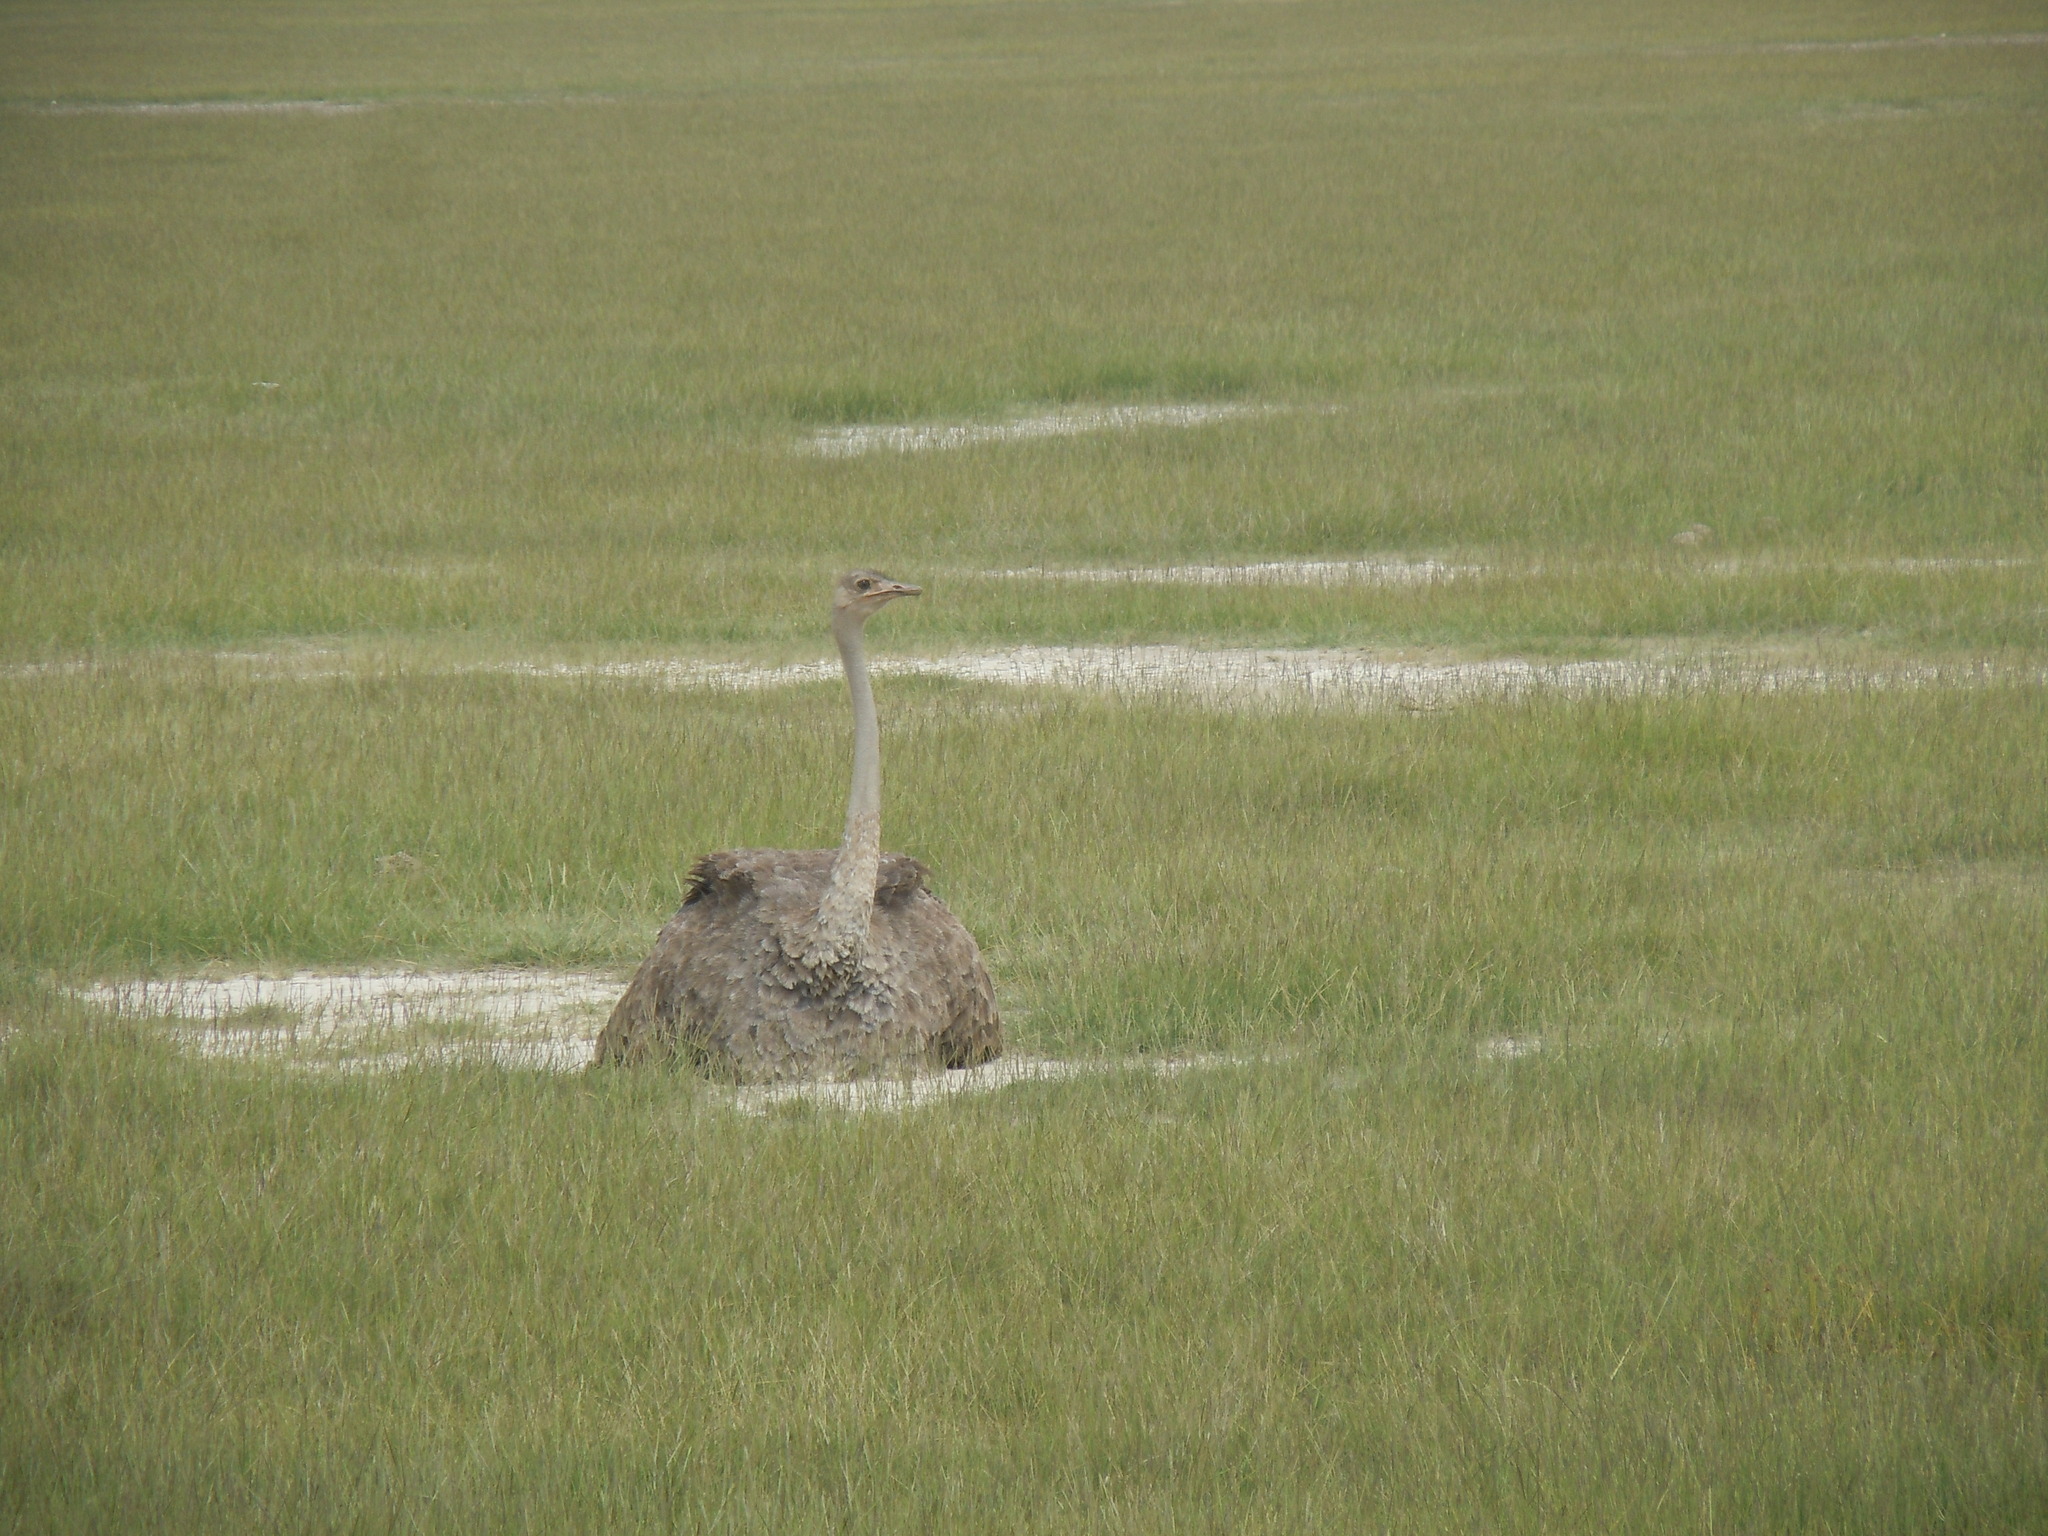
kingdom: Animalia
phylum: Chordata
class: Aves
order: Struthioniformes
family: Struthionidae
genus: Struthio
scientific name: Struthio camelus
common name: Common ostrich
